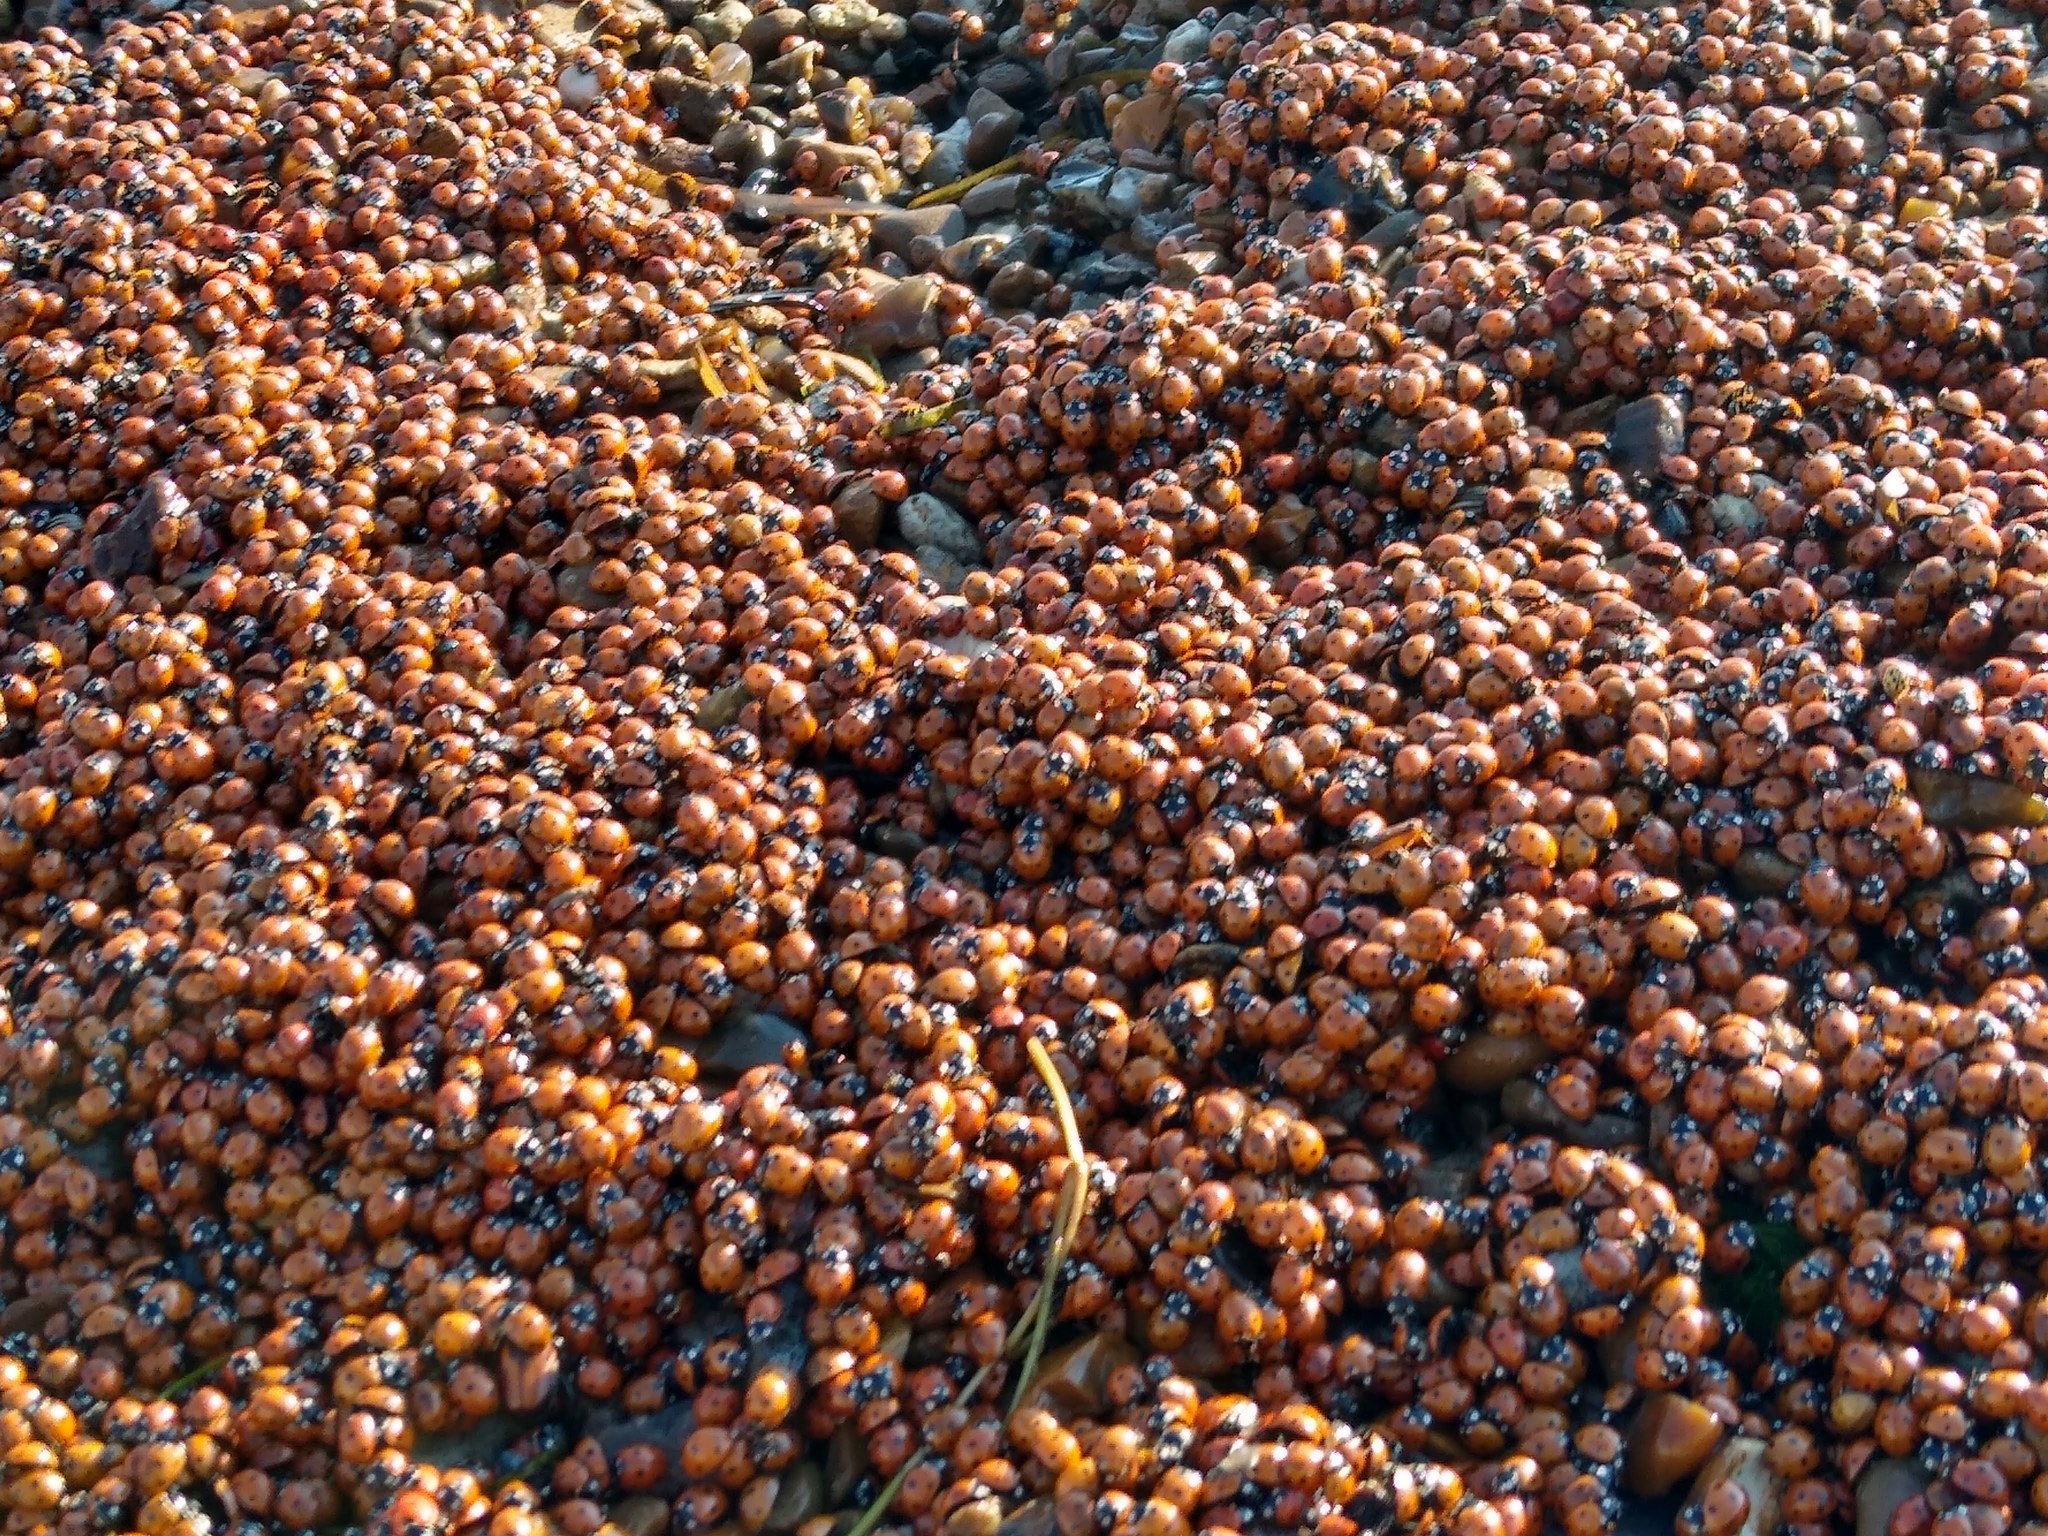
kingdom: Animalia
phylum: Arthropoda
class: Insecta
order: Coleoptera
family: Coccinellidae
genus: Coccinella
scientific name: Coccinella septempunctata
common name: Sevenspotted lady beetle
